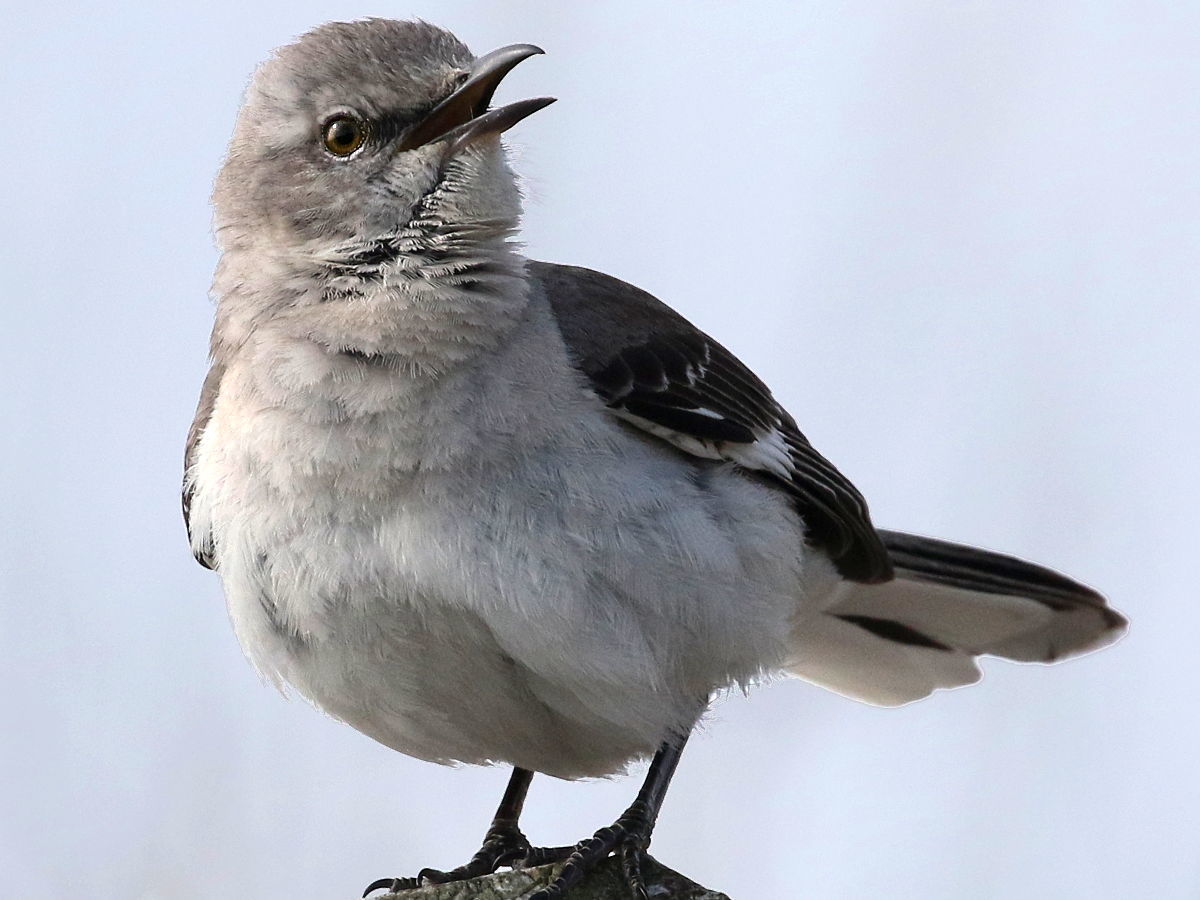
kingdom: Animalia
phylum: Chordata
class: Aves
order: Passeriformes
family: Mimidae
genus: Mimus
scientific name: Mimus polyglottos
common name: Northern mockingbird
